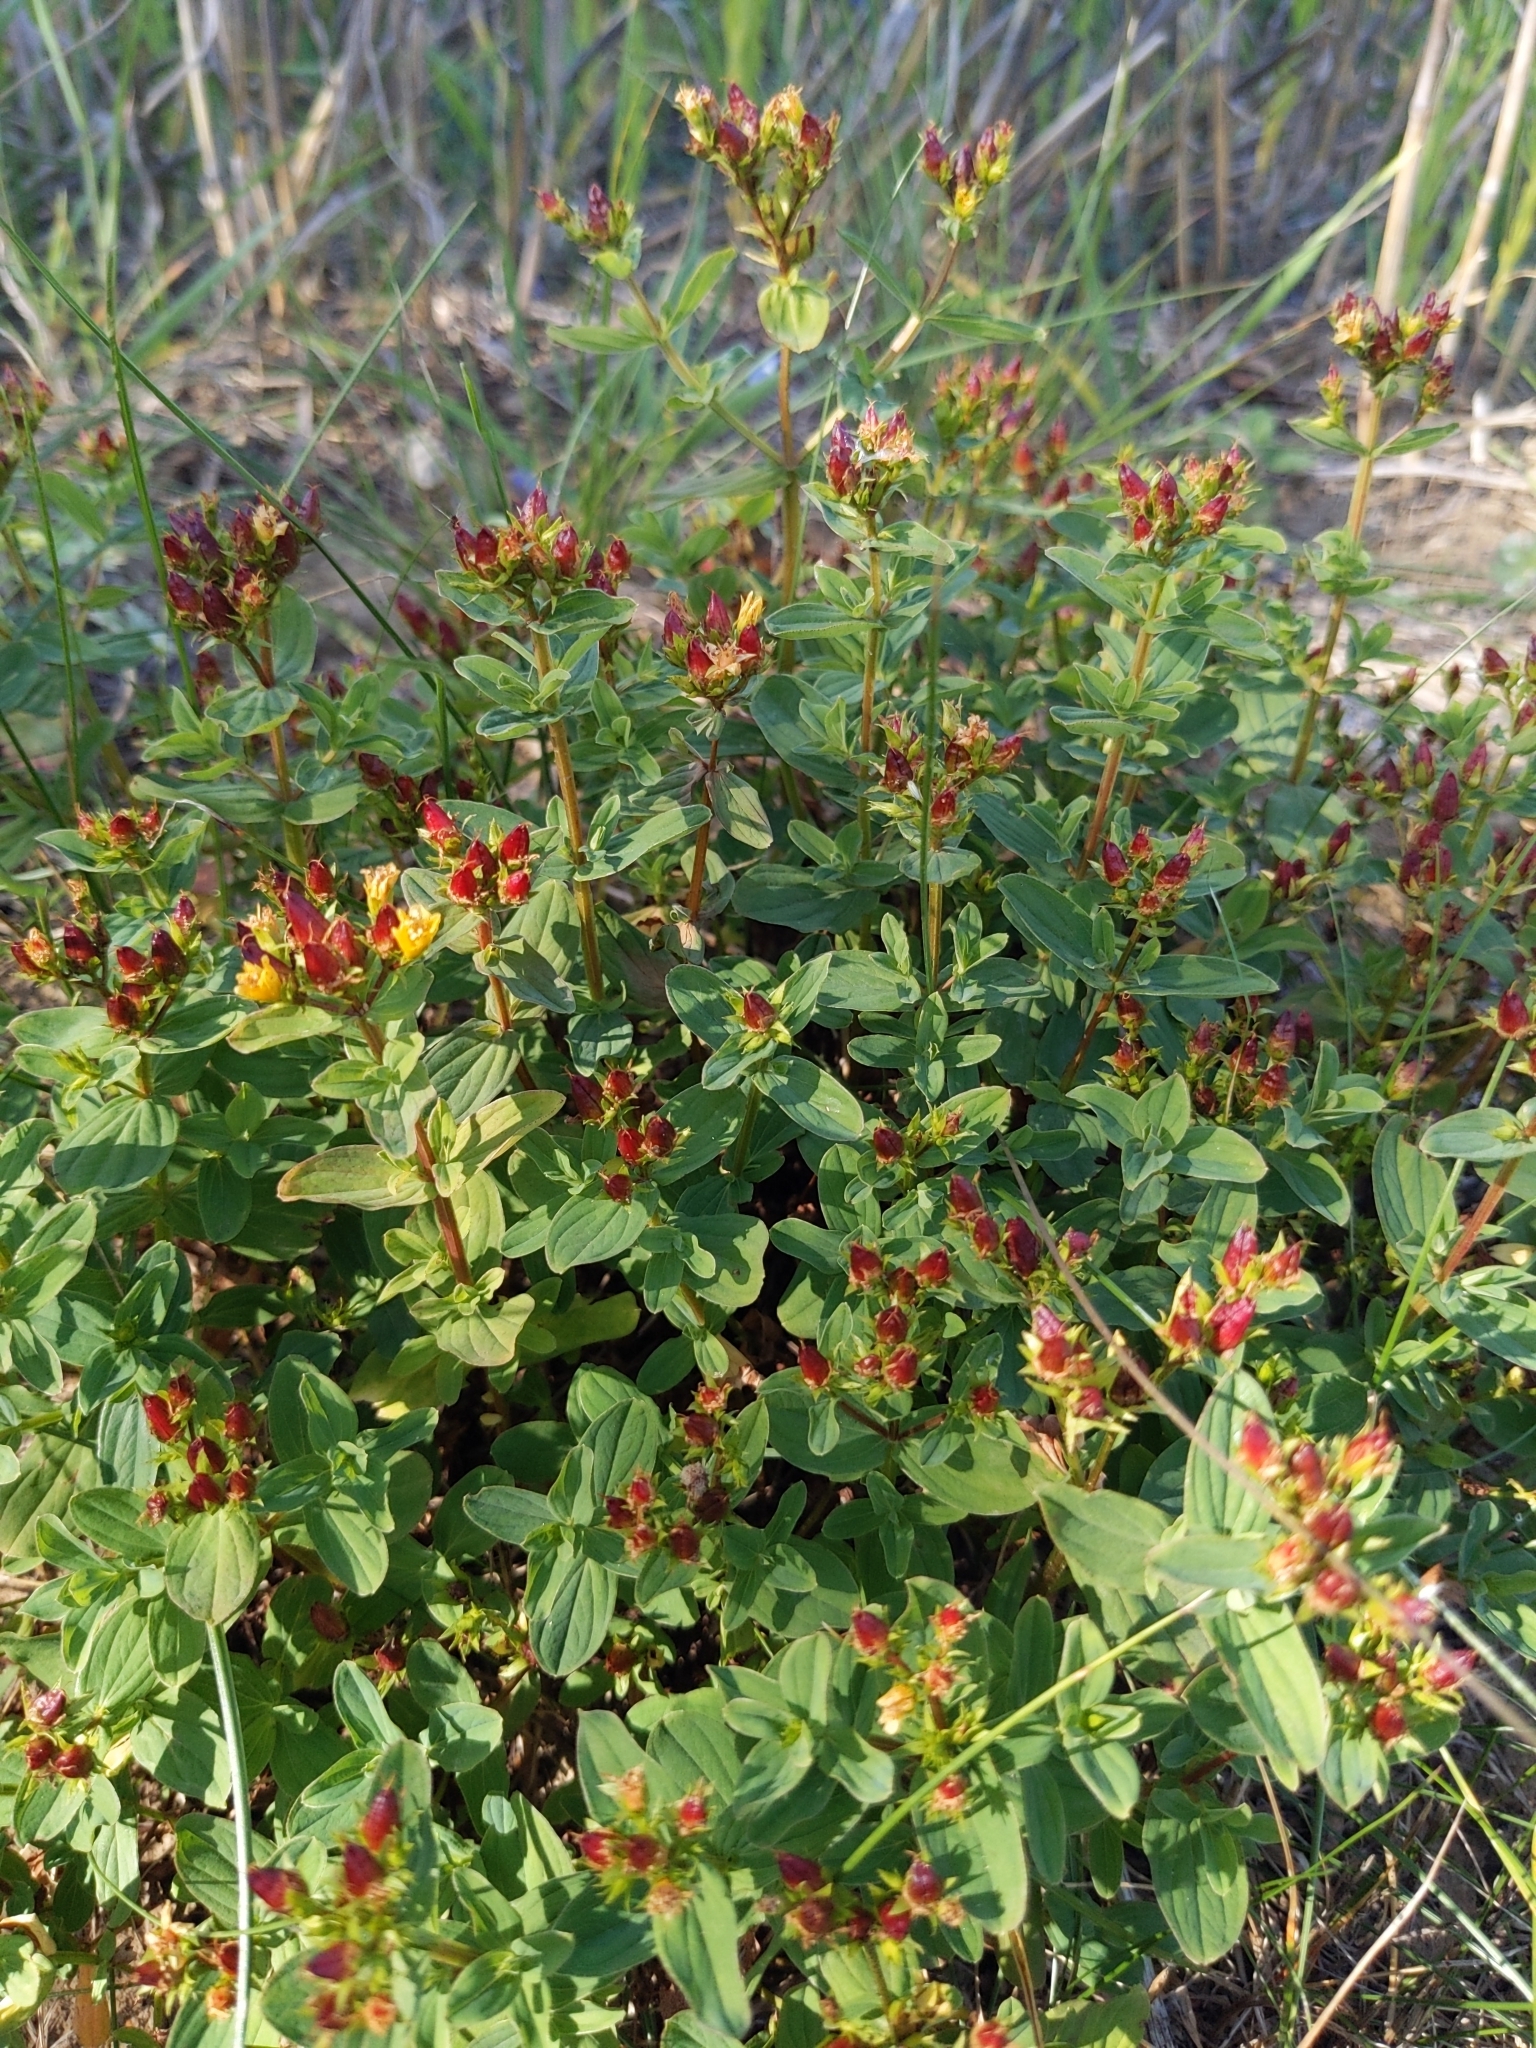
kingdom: Plantae
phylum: Tracheophyta
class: Magnoliopsida
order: Malpighiales
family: Hypericaceae
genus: Hypericum
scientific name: Hypericum tetrapterum
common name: Square-stalked st. john's-wort
